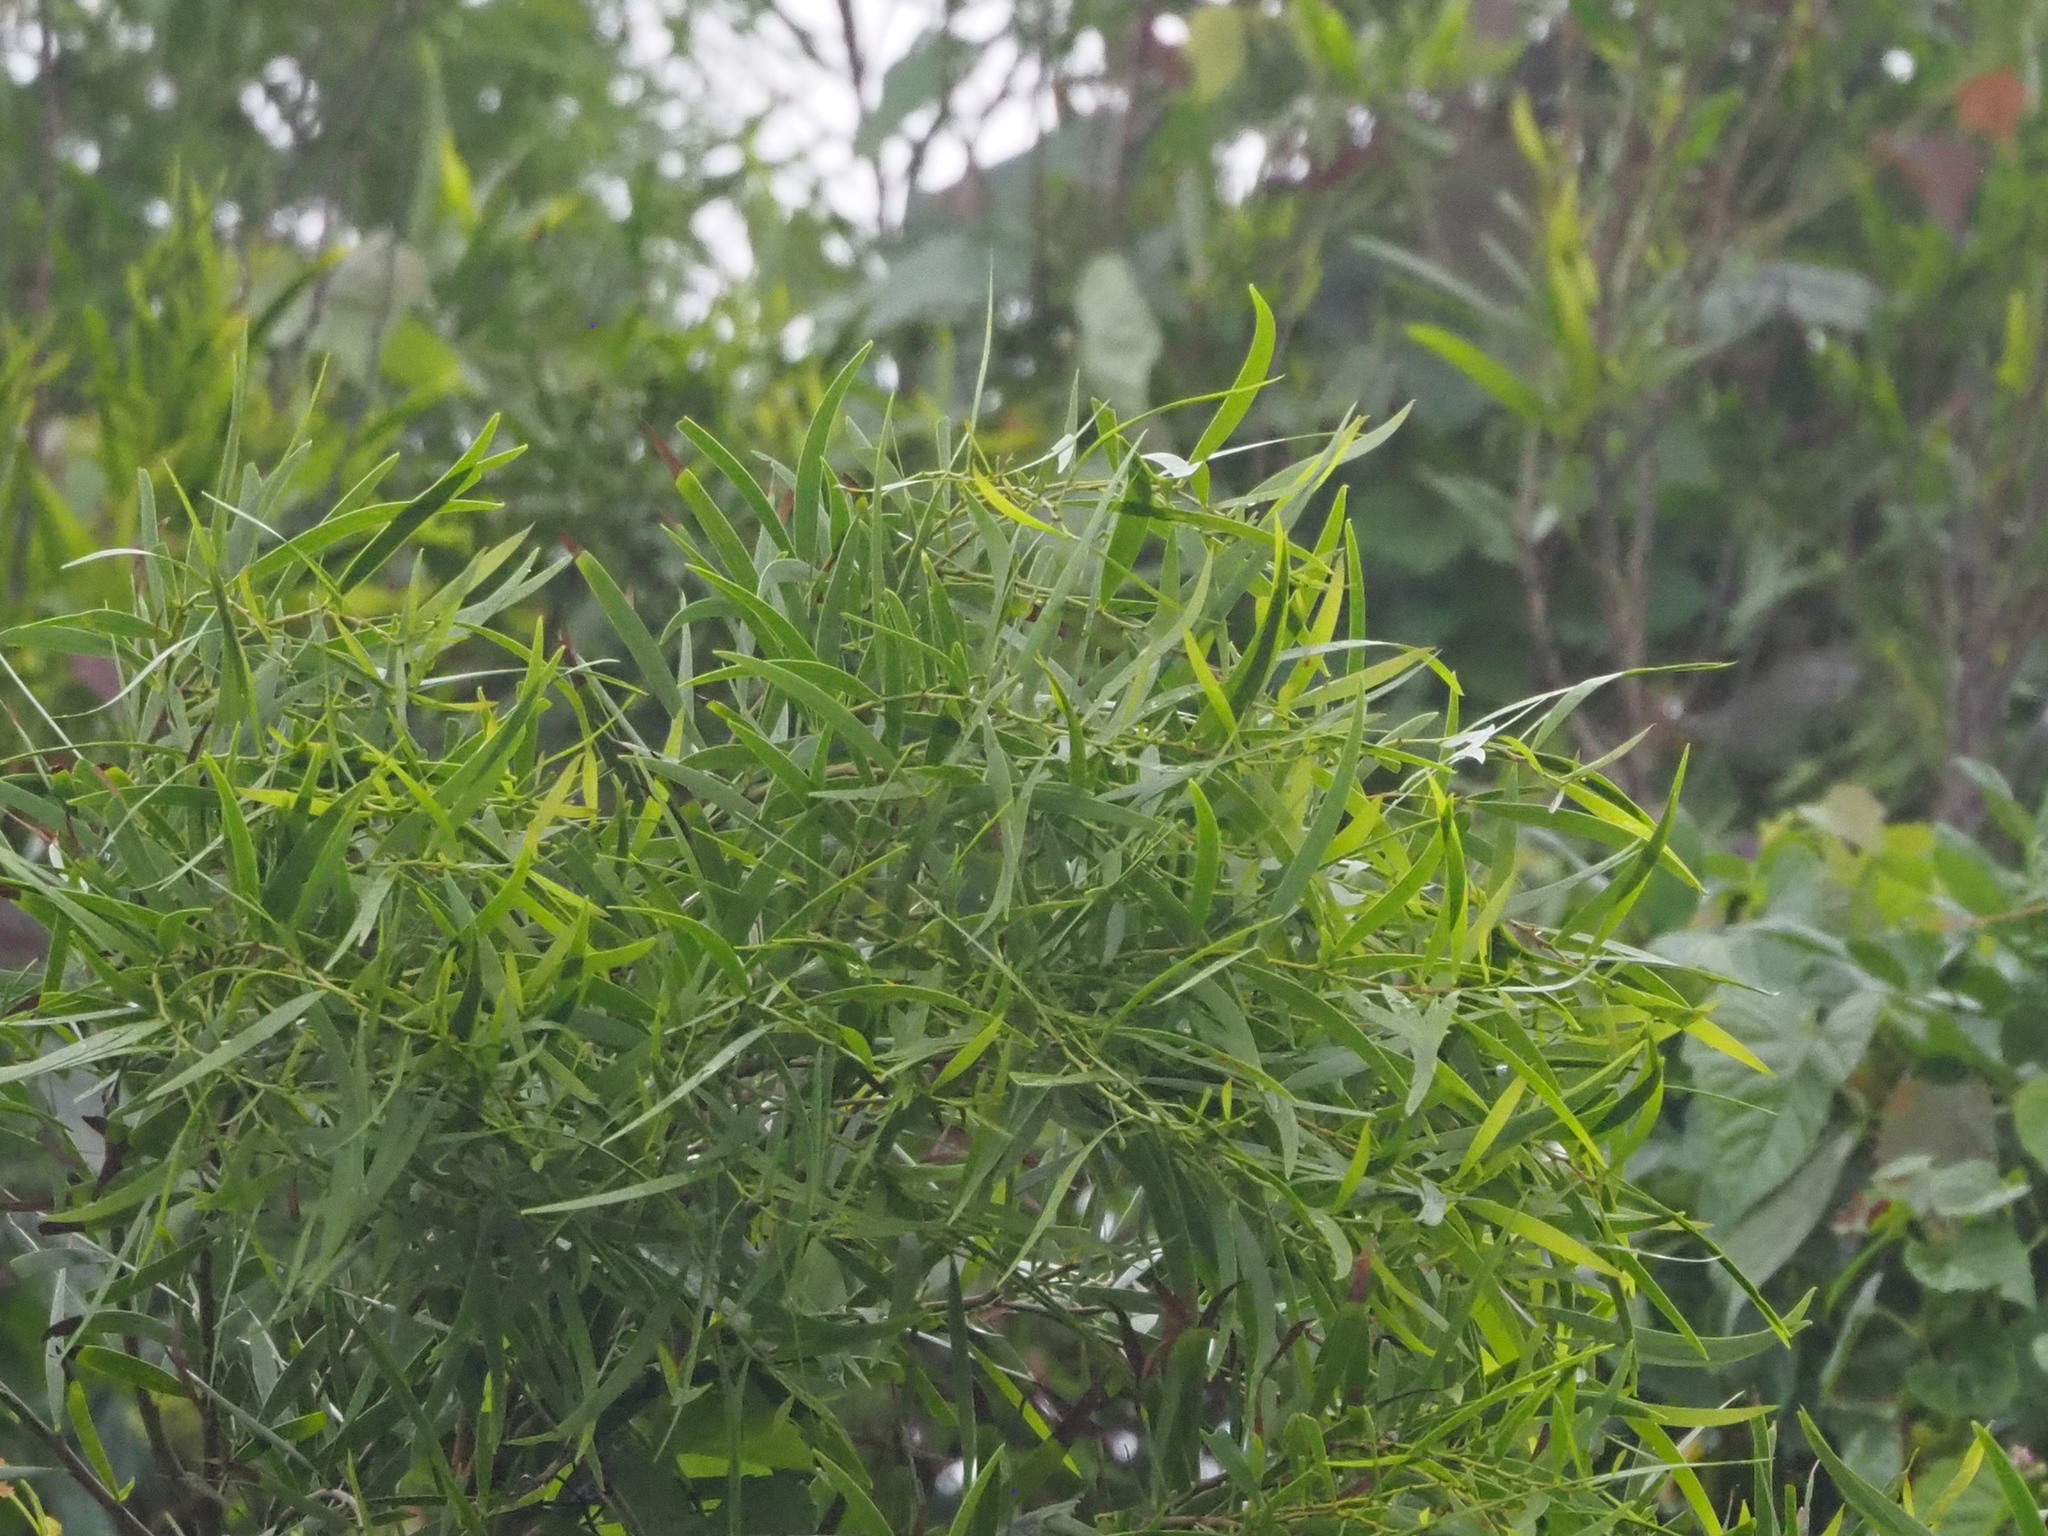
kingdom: Plantae
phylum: Tracheophyta
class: Magnoliopsida
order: Fabales
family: Fabaceae
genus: Acacia
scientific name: Acacia confusa
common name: Formosan koa
